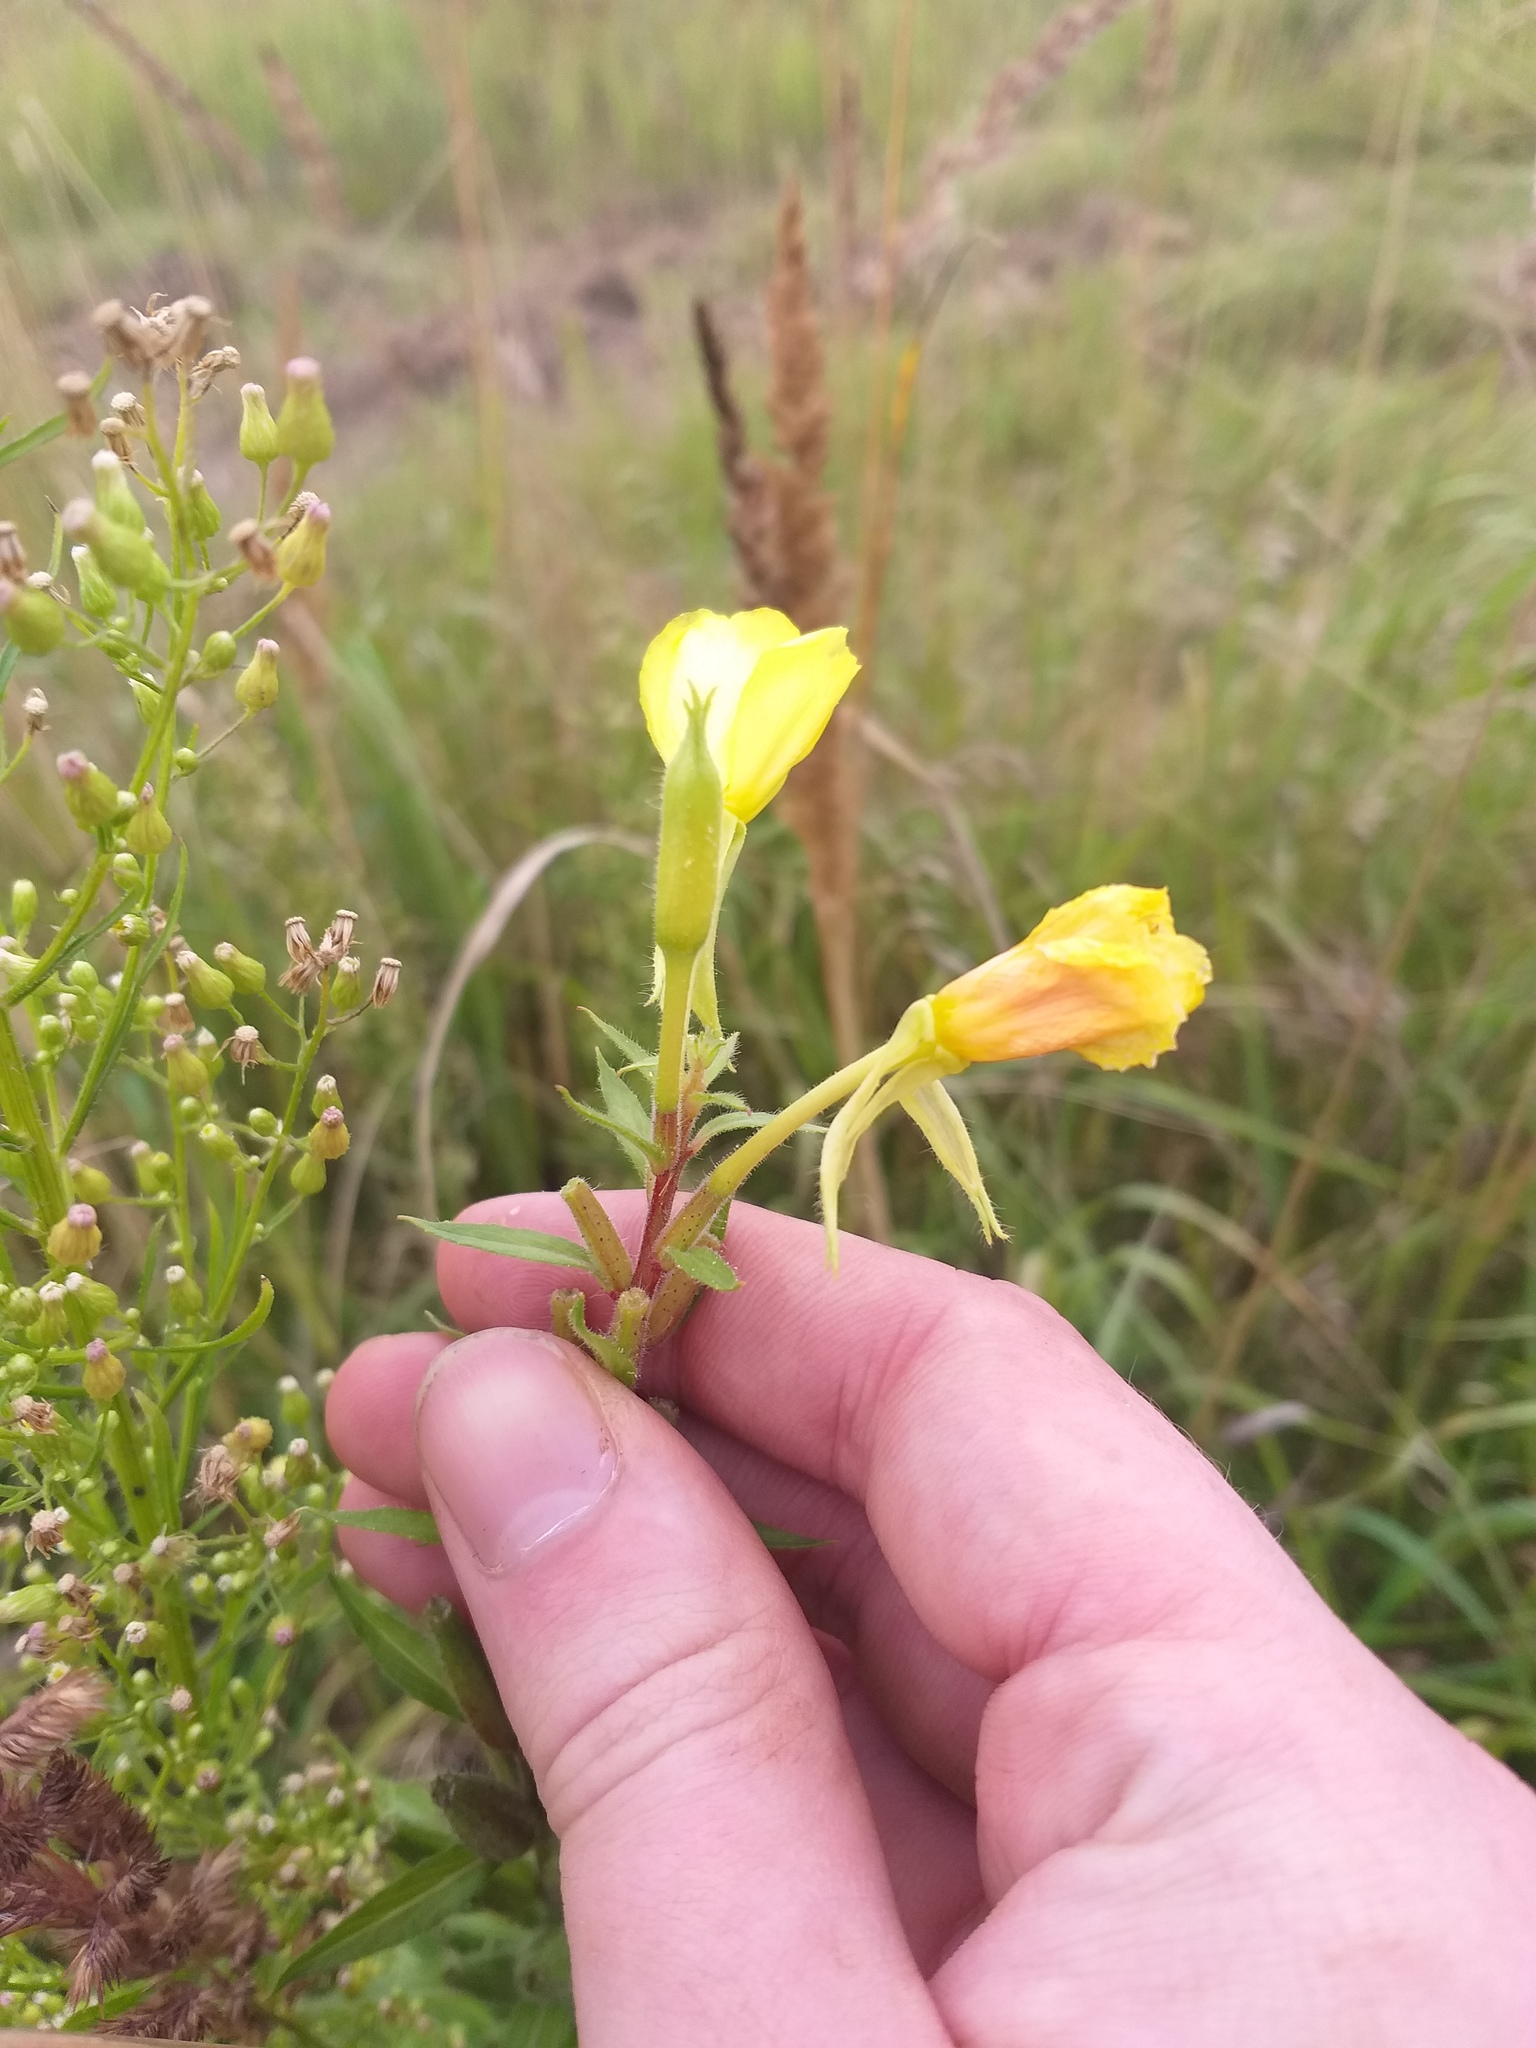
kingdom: Plantae
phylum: Tracheophyta
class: Magnoliopsida
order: Myrtales
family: Onagraceae
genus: Oenothera
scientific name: Oenothera rubricaulis
